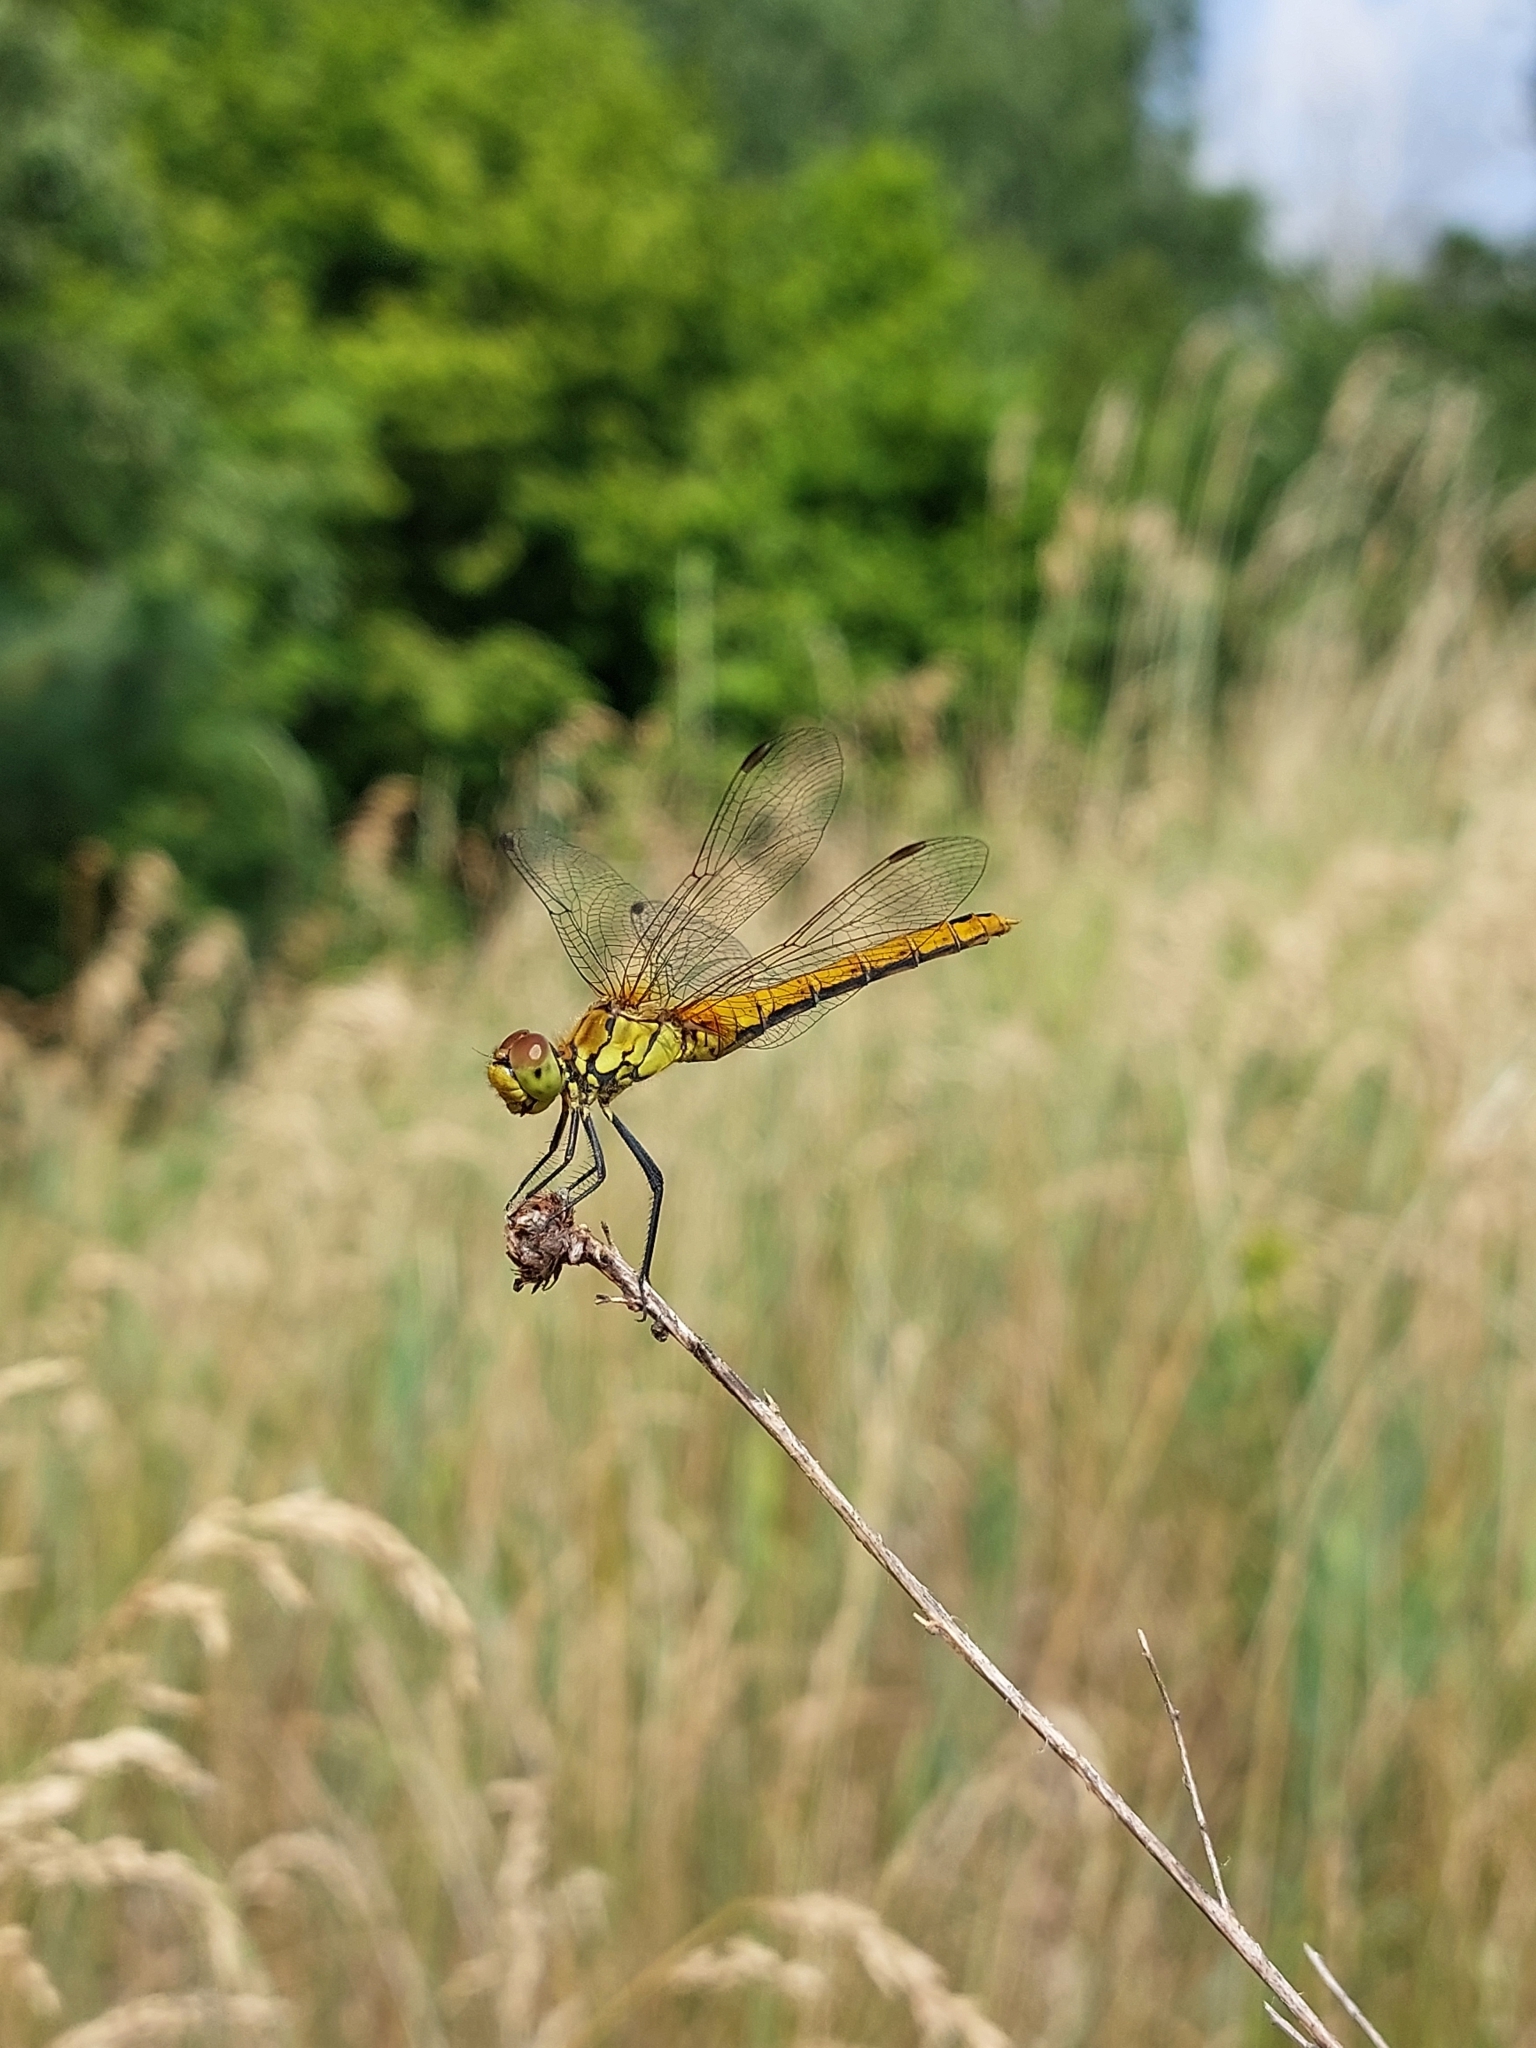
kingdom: Animalia
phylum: Arthropoda
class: Insecta
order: Odonata
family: Libellulidae
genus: Sympetrum
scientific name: Sympetrum sanguineum
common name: Ruddy darter
